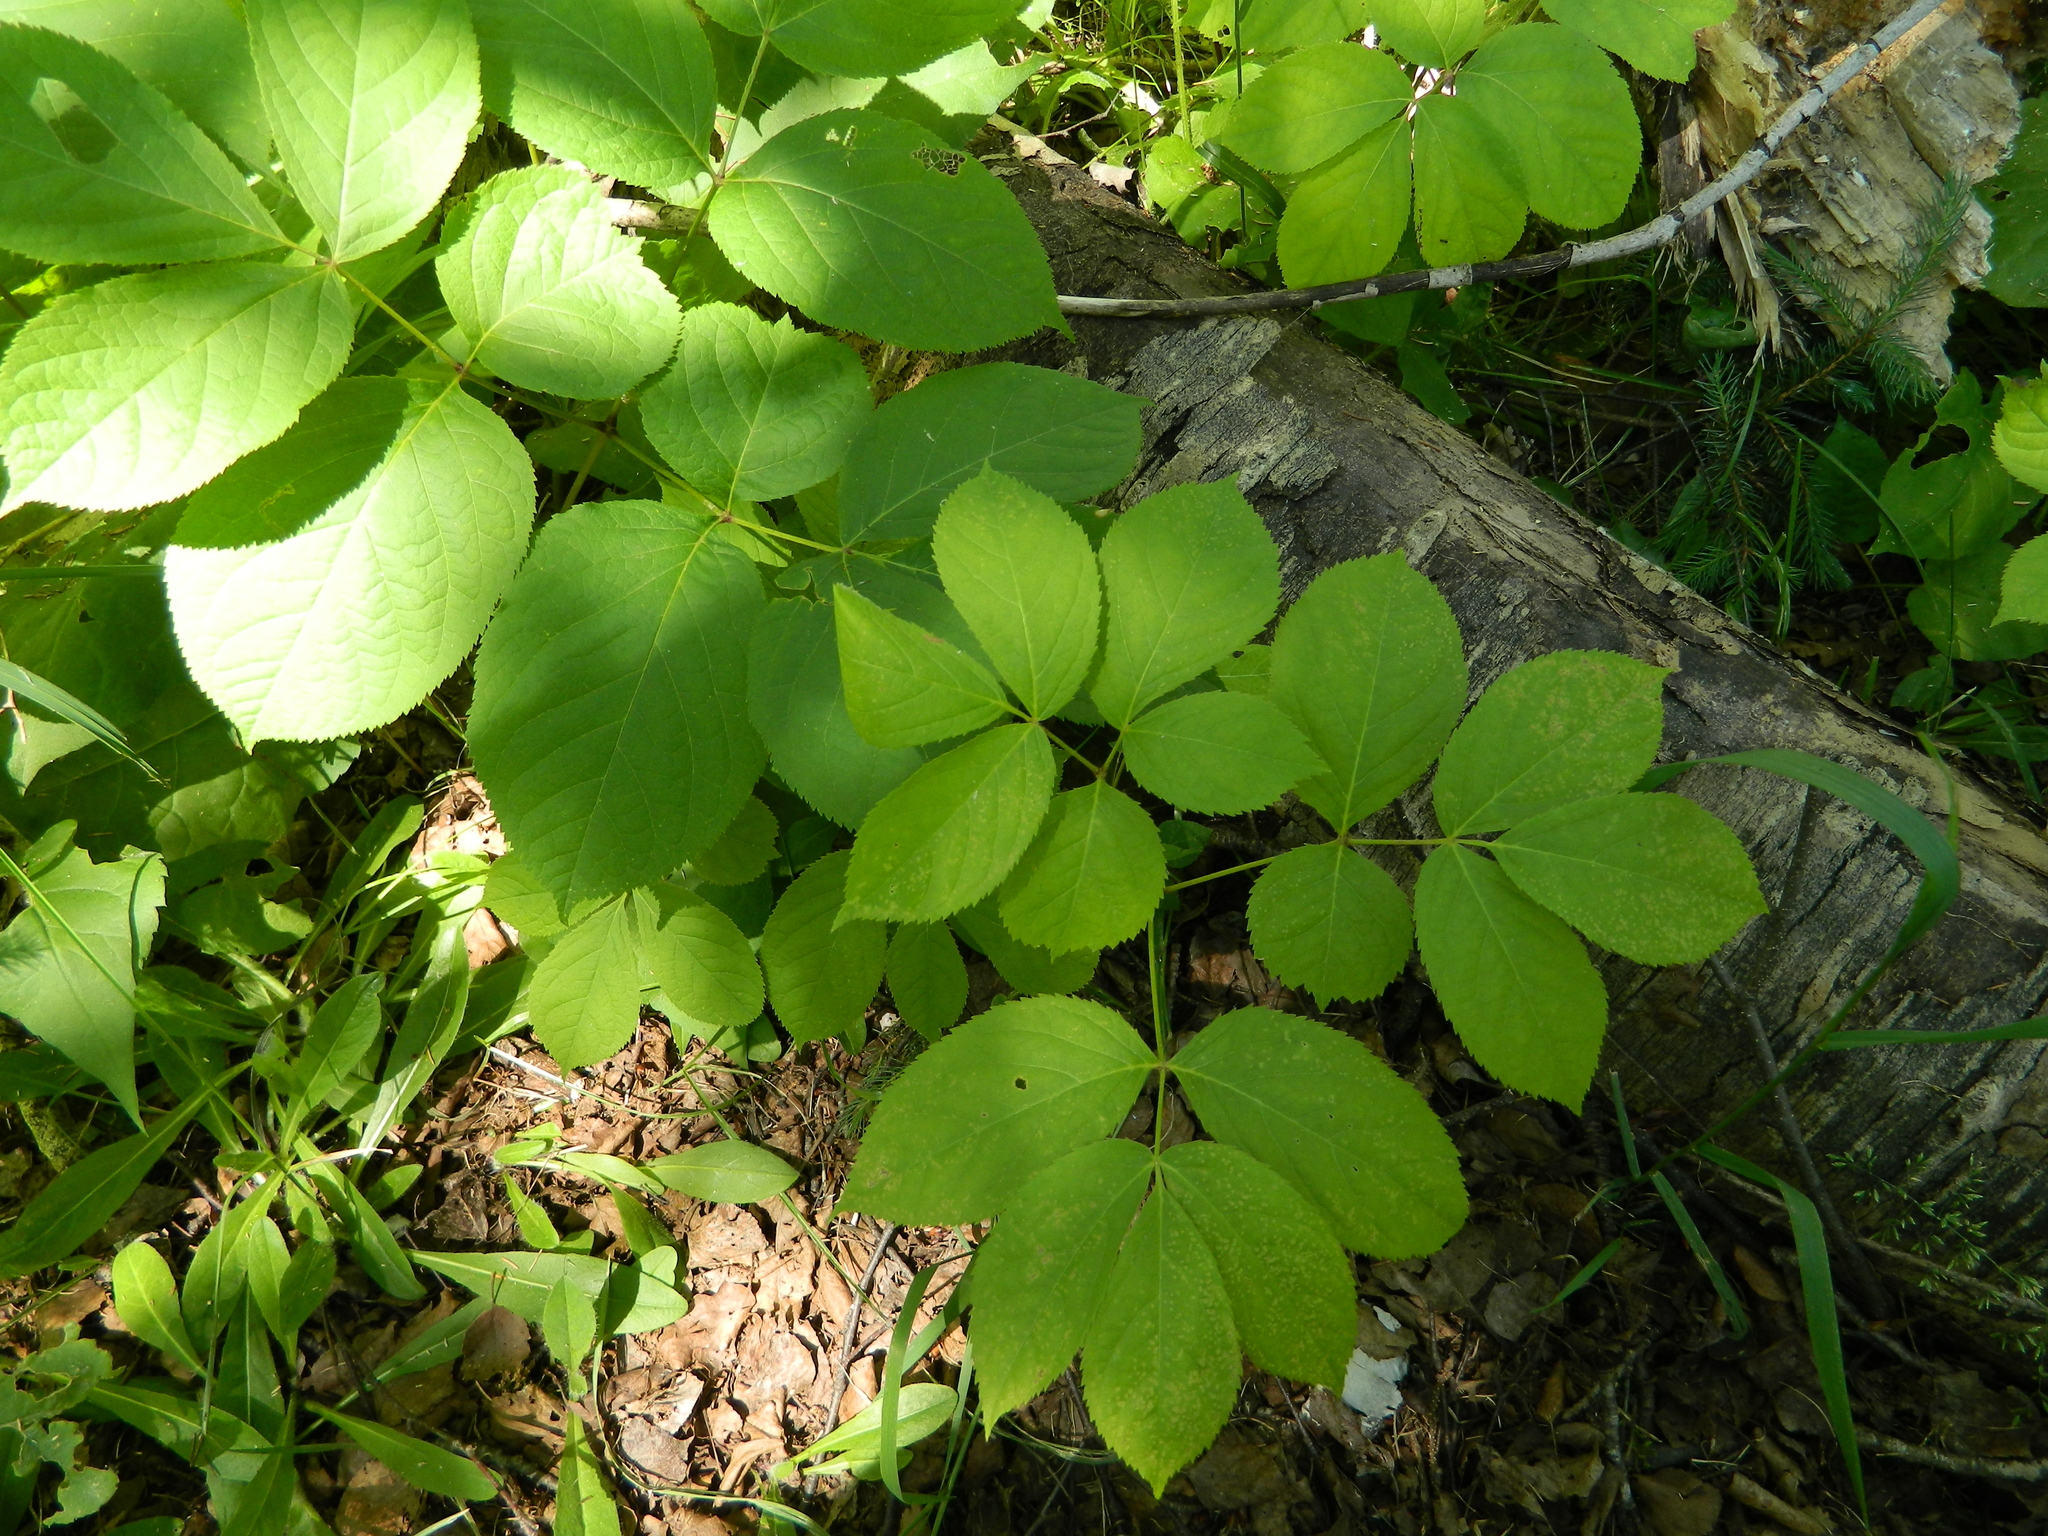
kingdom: Plantae
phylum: Tracheophyta
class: Magnoliopsida
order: Apiales
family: Araliaceae
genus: Aralia
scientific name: Aralia nudicaulis
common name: Wild sarsaparilla
